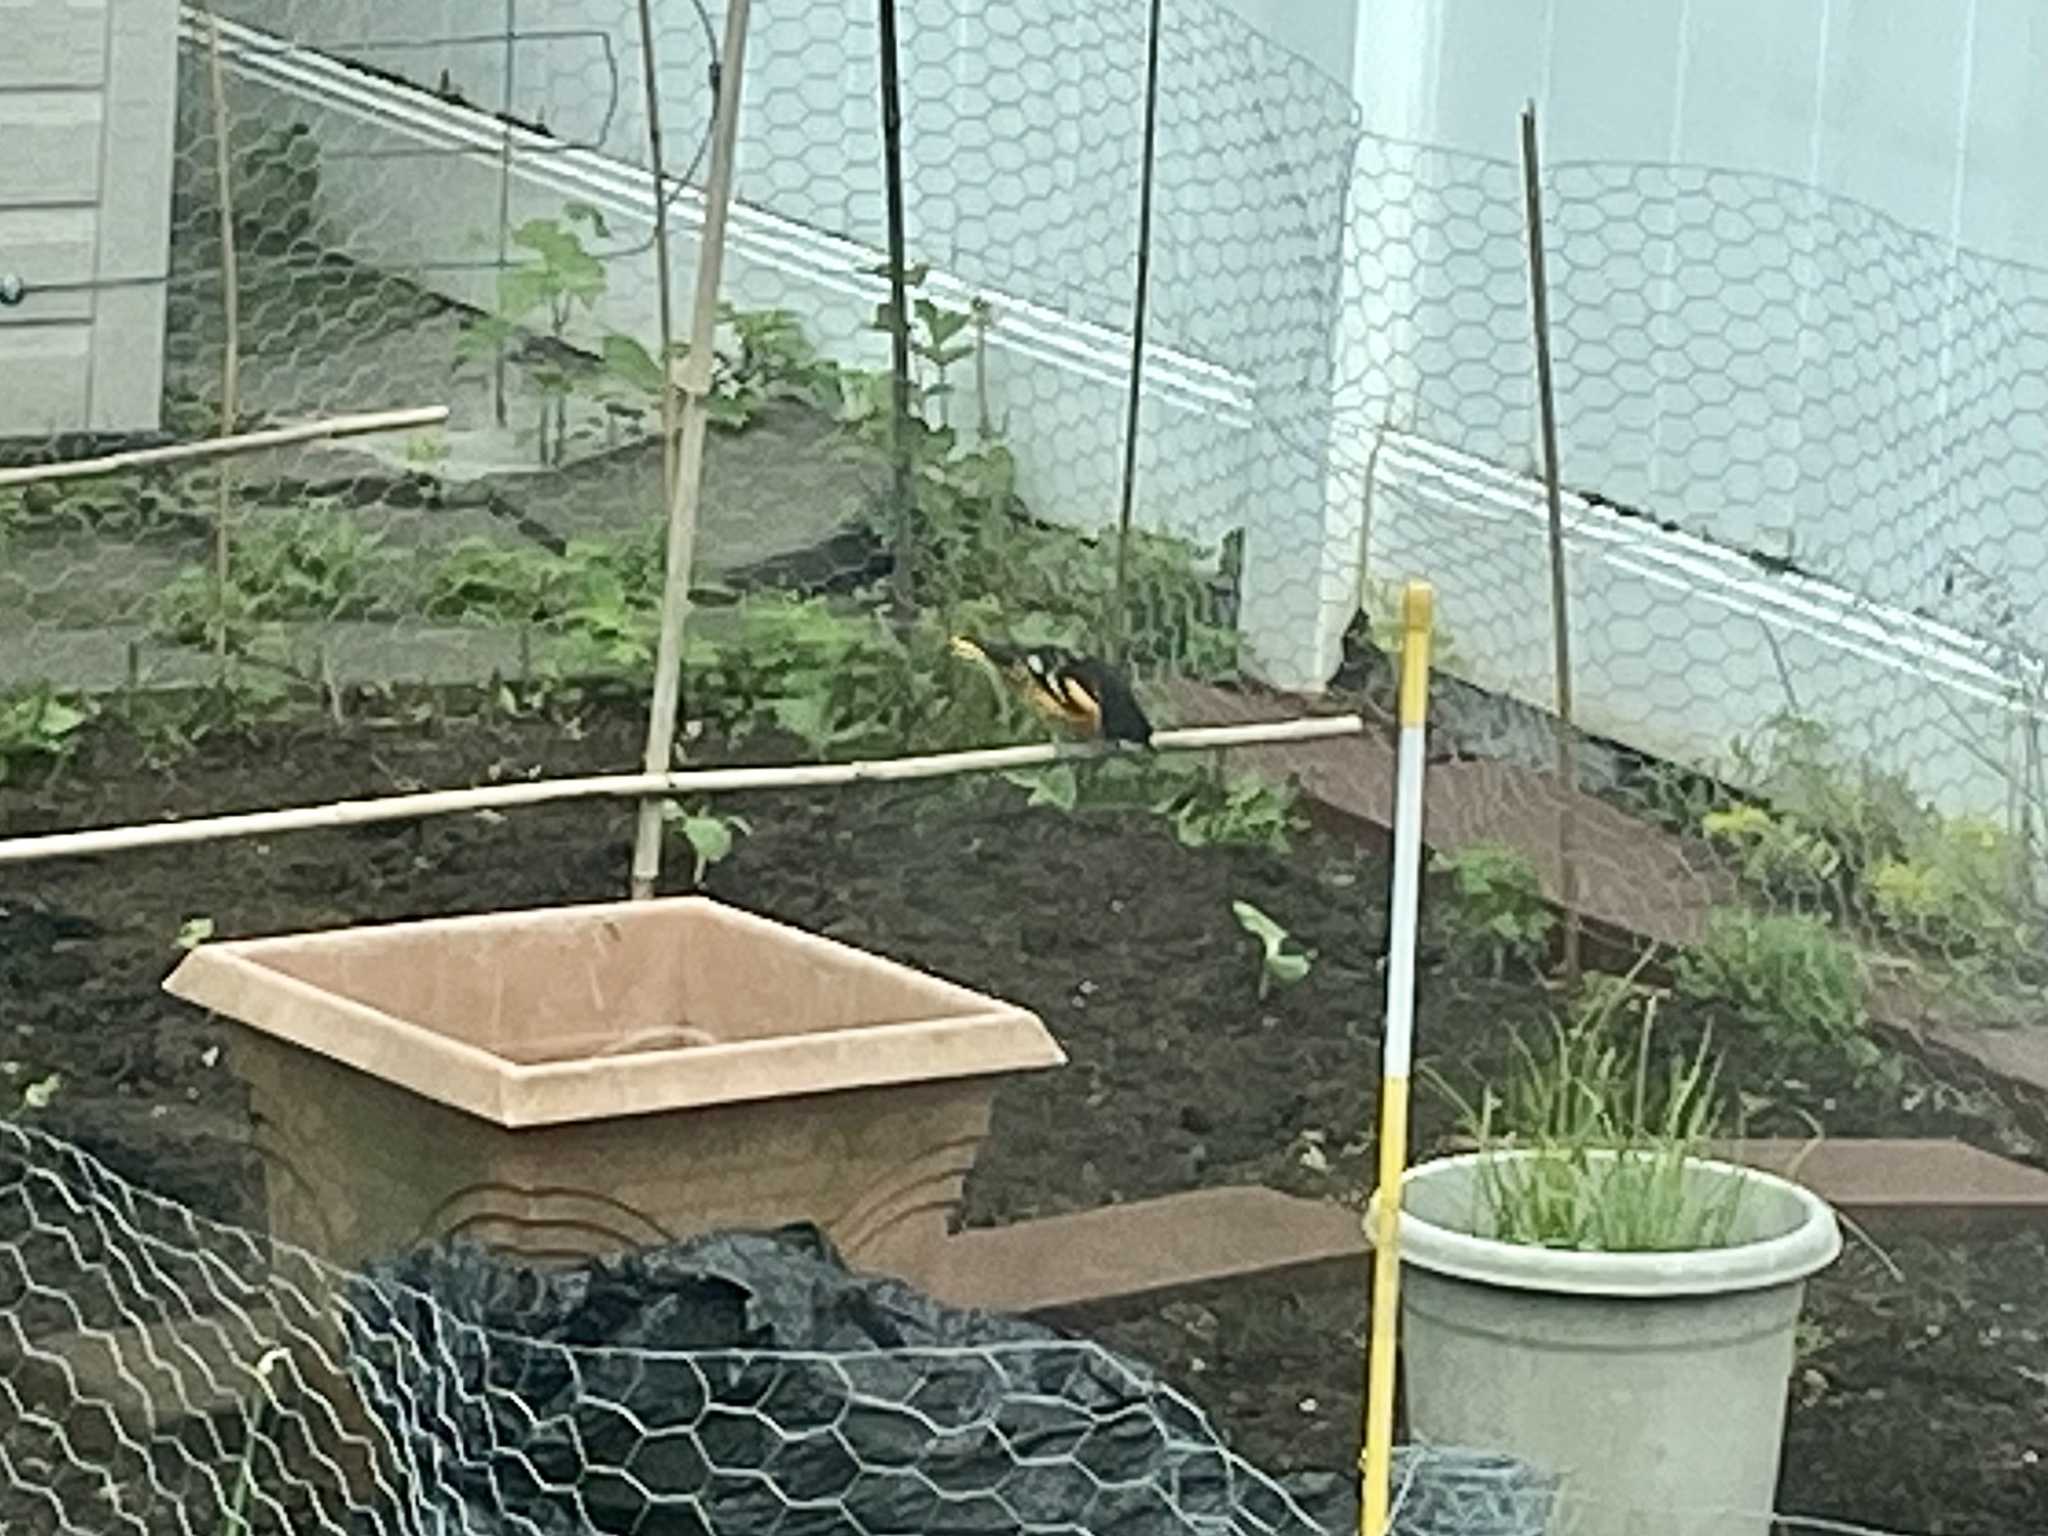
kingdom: Animalia
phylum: Chordata
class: Aves
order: Passeriformes
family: Icteridae
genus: Icterus
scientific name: Icterus galbula
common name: Baltimore oriole
